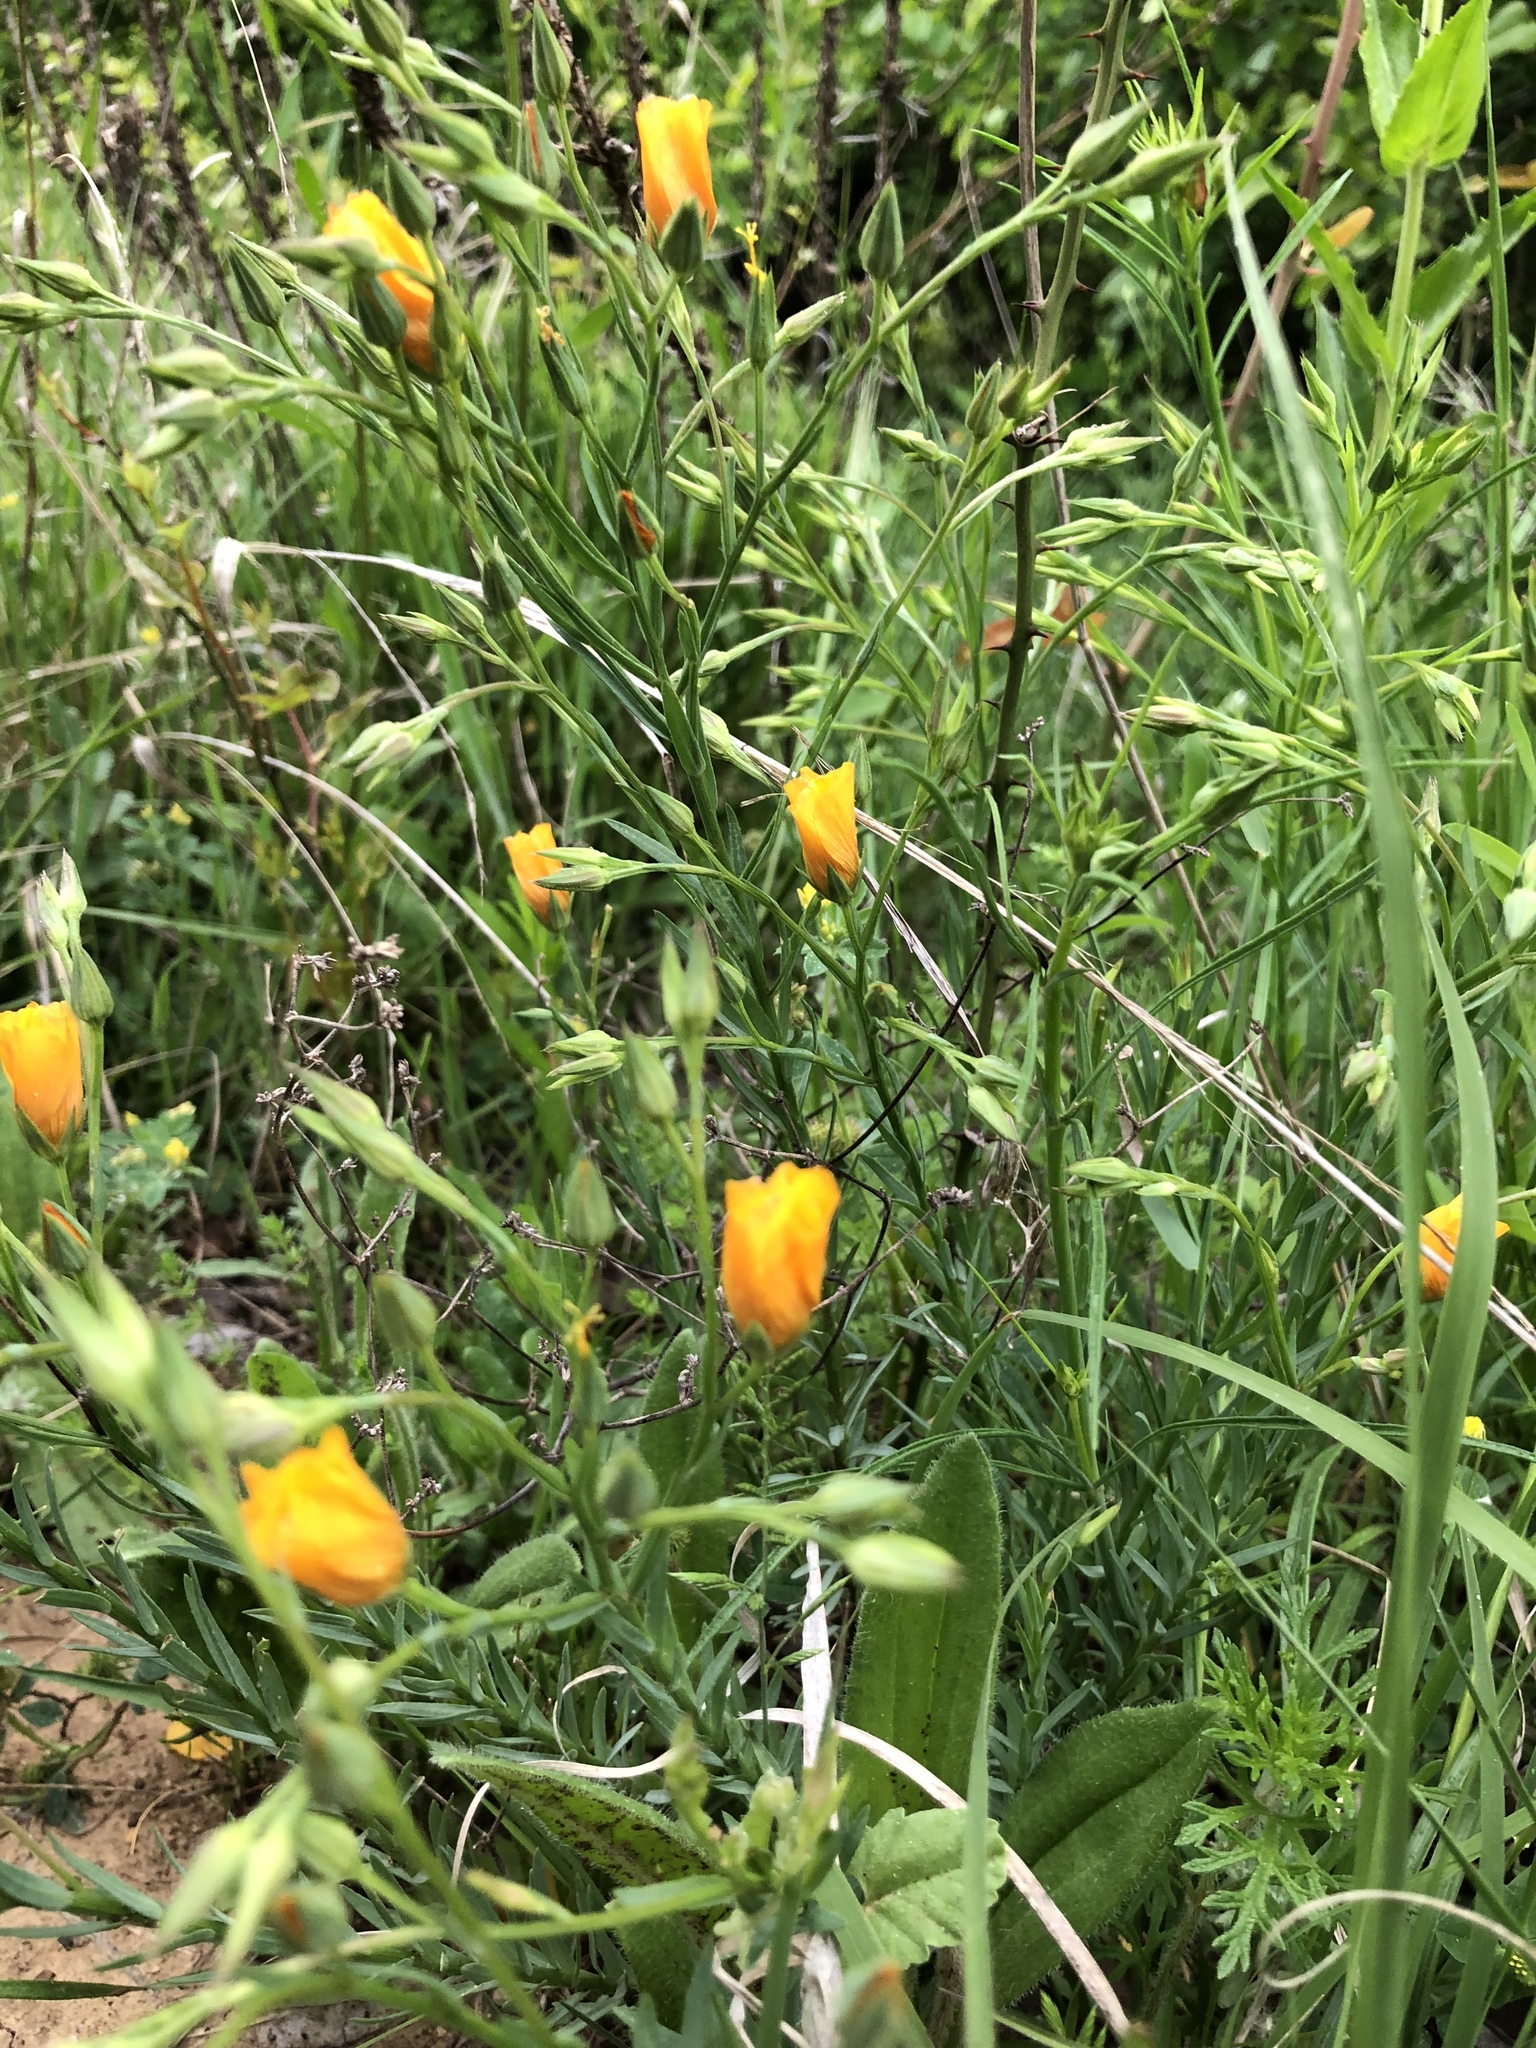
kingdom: Plantae
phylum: Tracheophyta
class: Magnoliopsida
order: Malpighiales
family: Linaceae
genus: Linum
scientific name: Linum rigidum
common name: Stiff-stem flax
